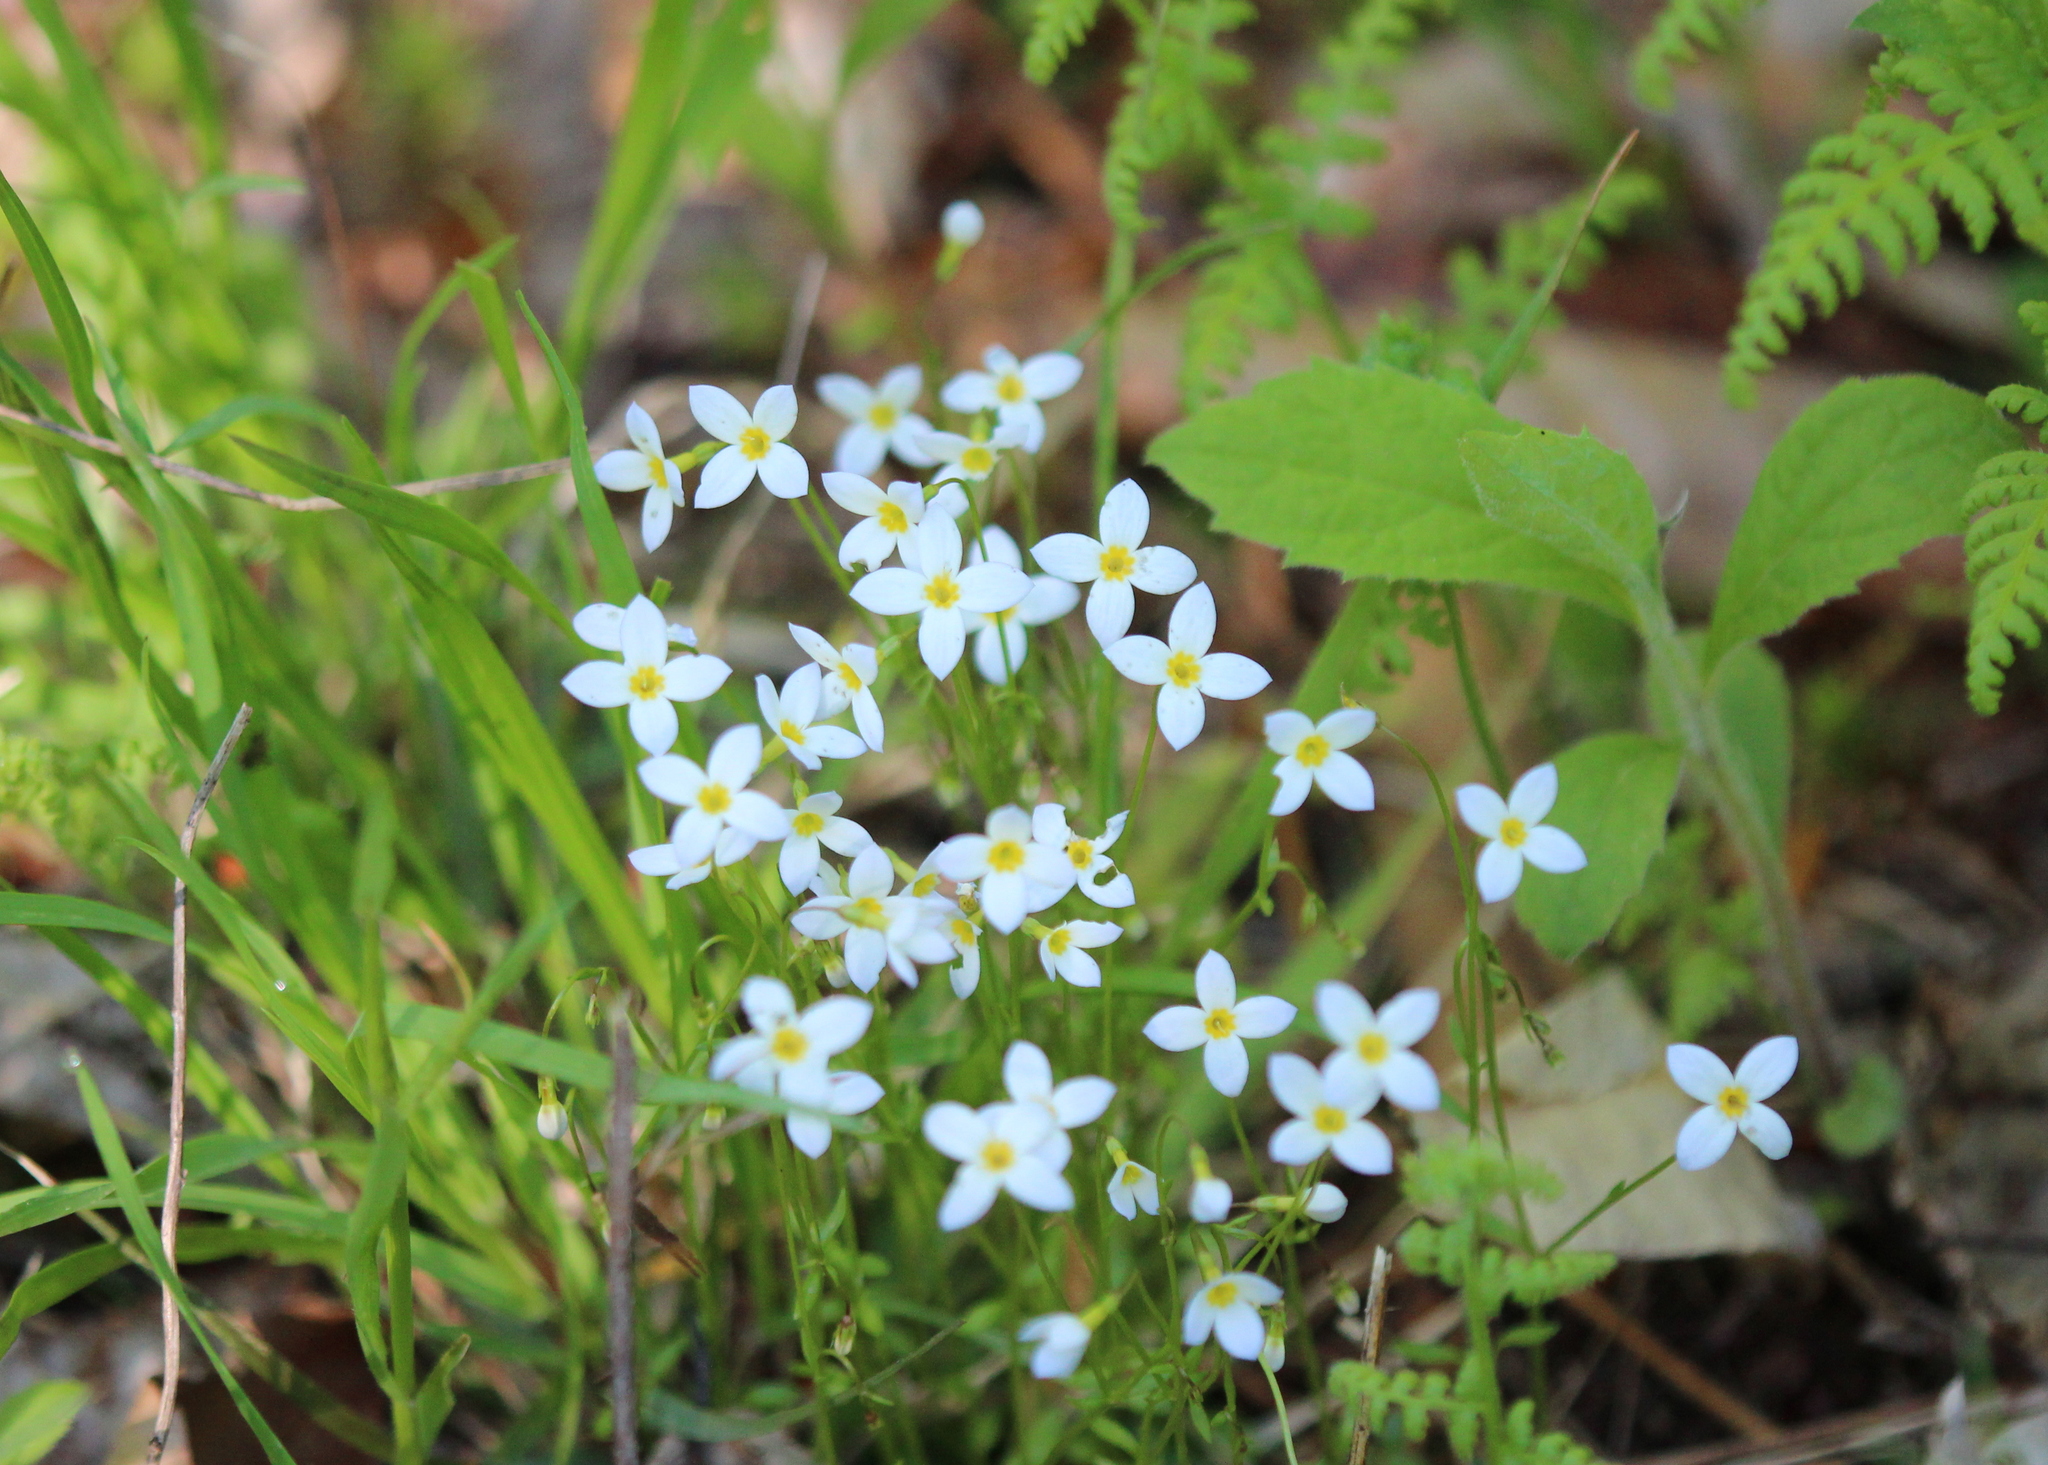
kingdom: Plantae
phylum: Tracheophyta
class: Magnoliopsida
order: Gentianales
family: Rubiaceae
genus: Houstonia
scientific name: Houstonia caerulea
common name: Bluets
